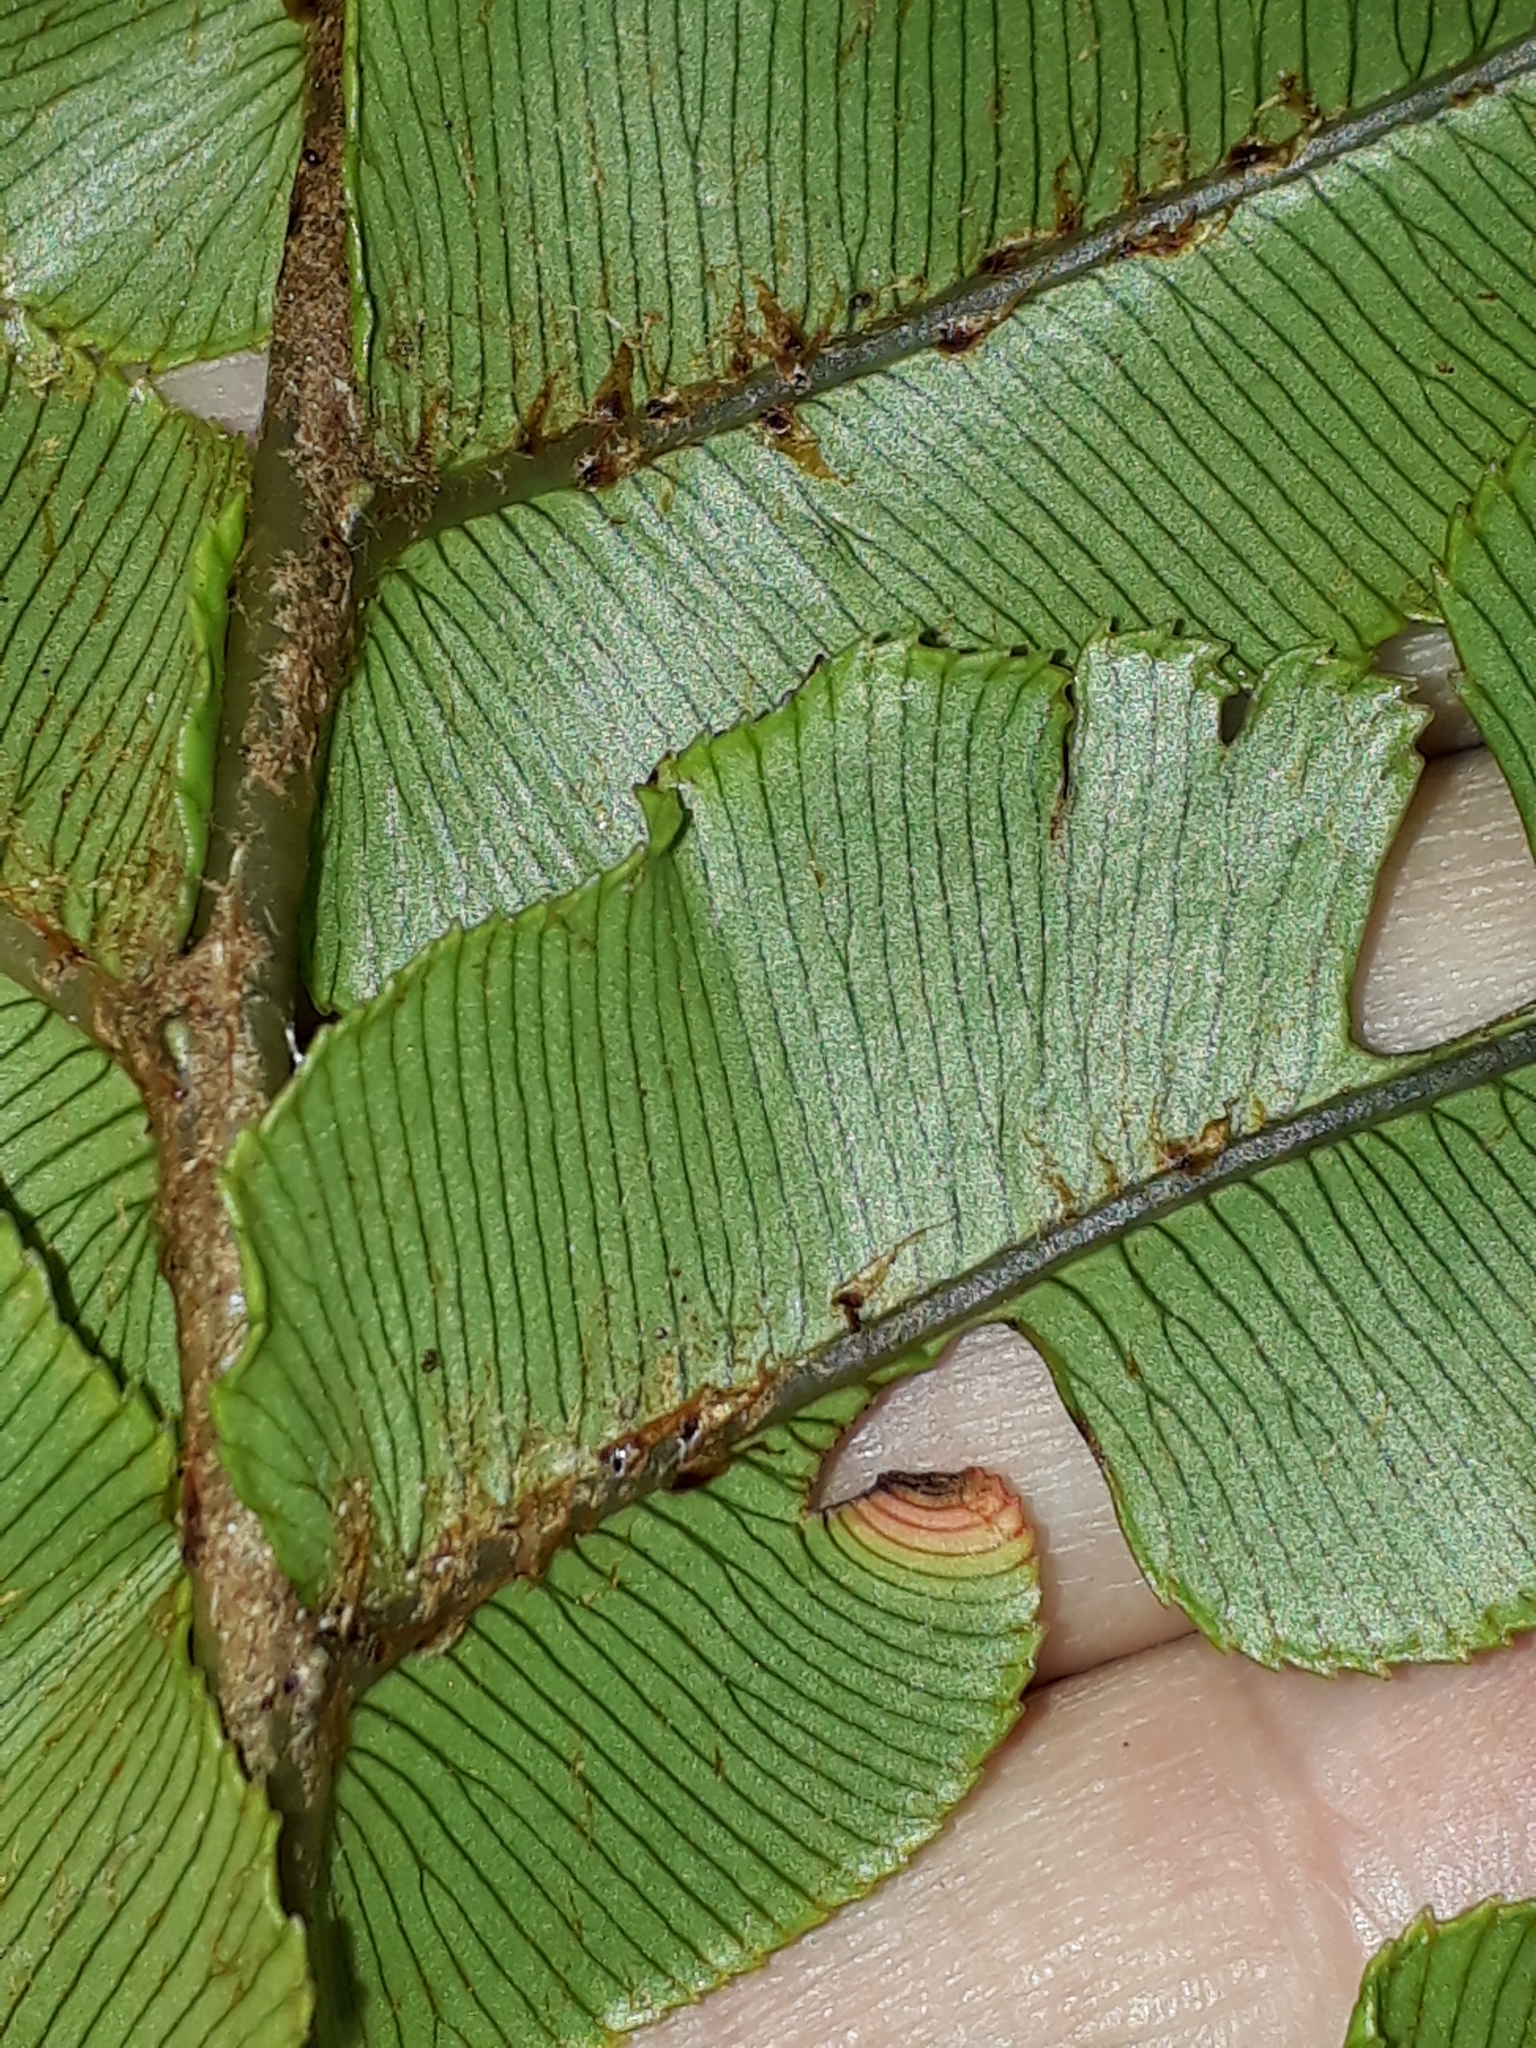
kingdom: Plantae
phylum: Tracheophyta
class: Polypodiopsida
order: Polypodiales
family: Blechnaceae
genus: Parablechnum
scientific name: Parablechnum procerum
